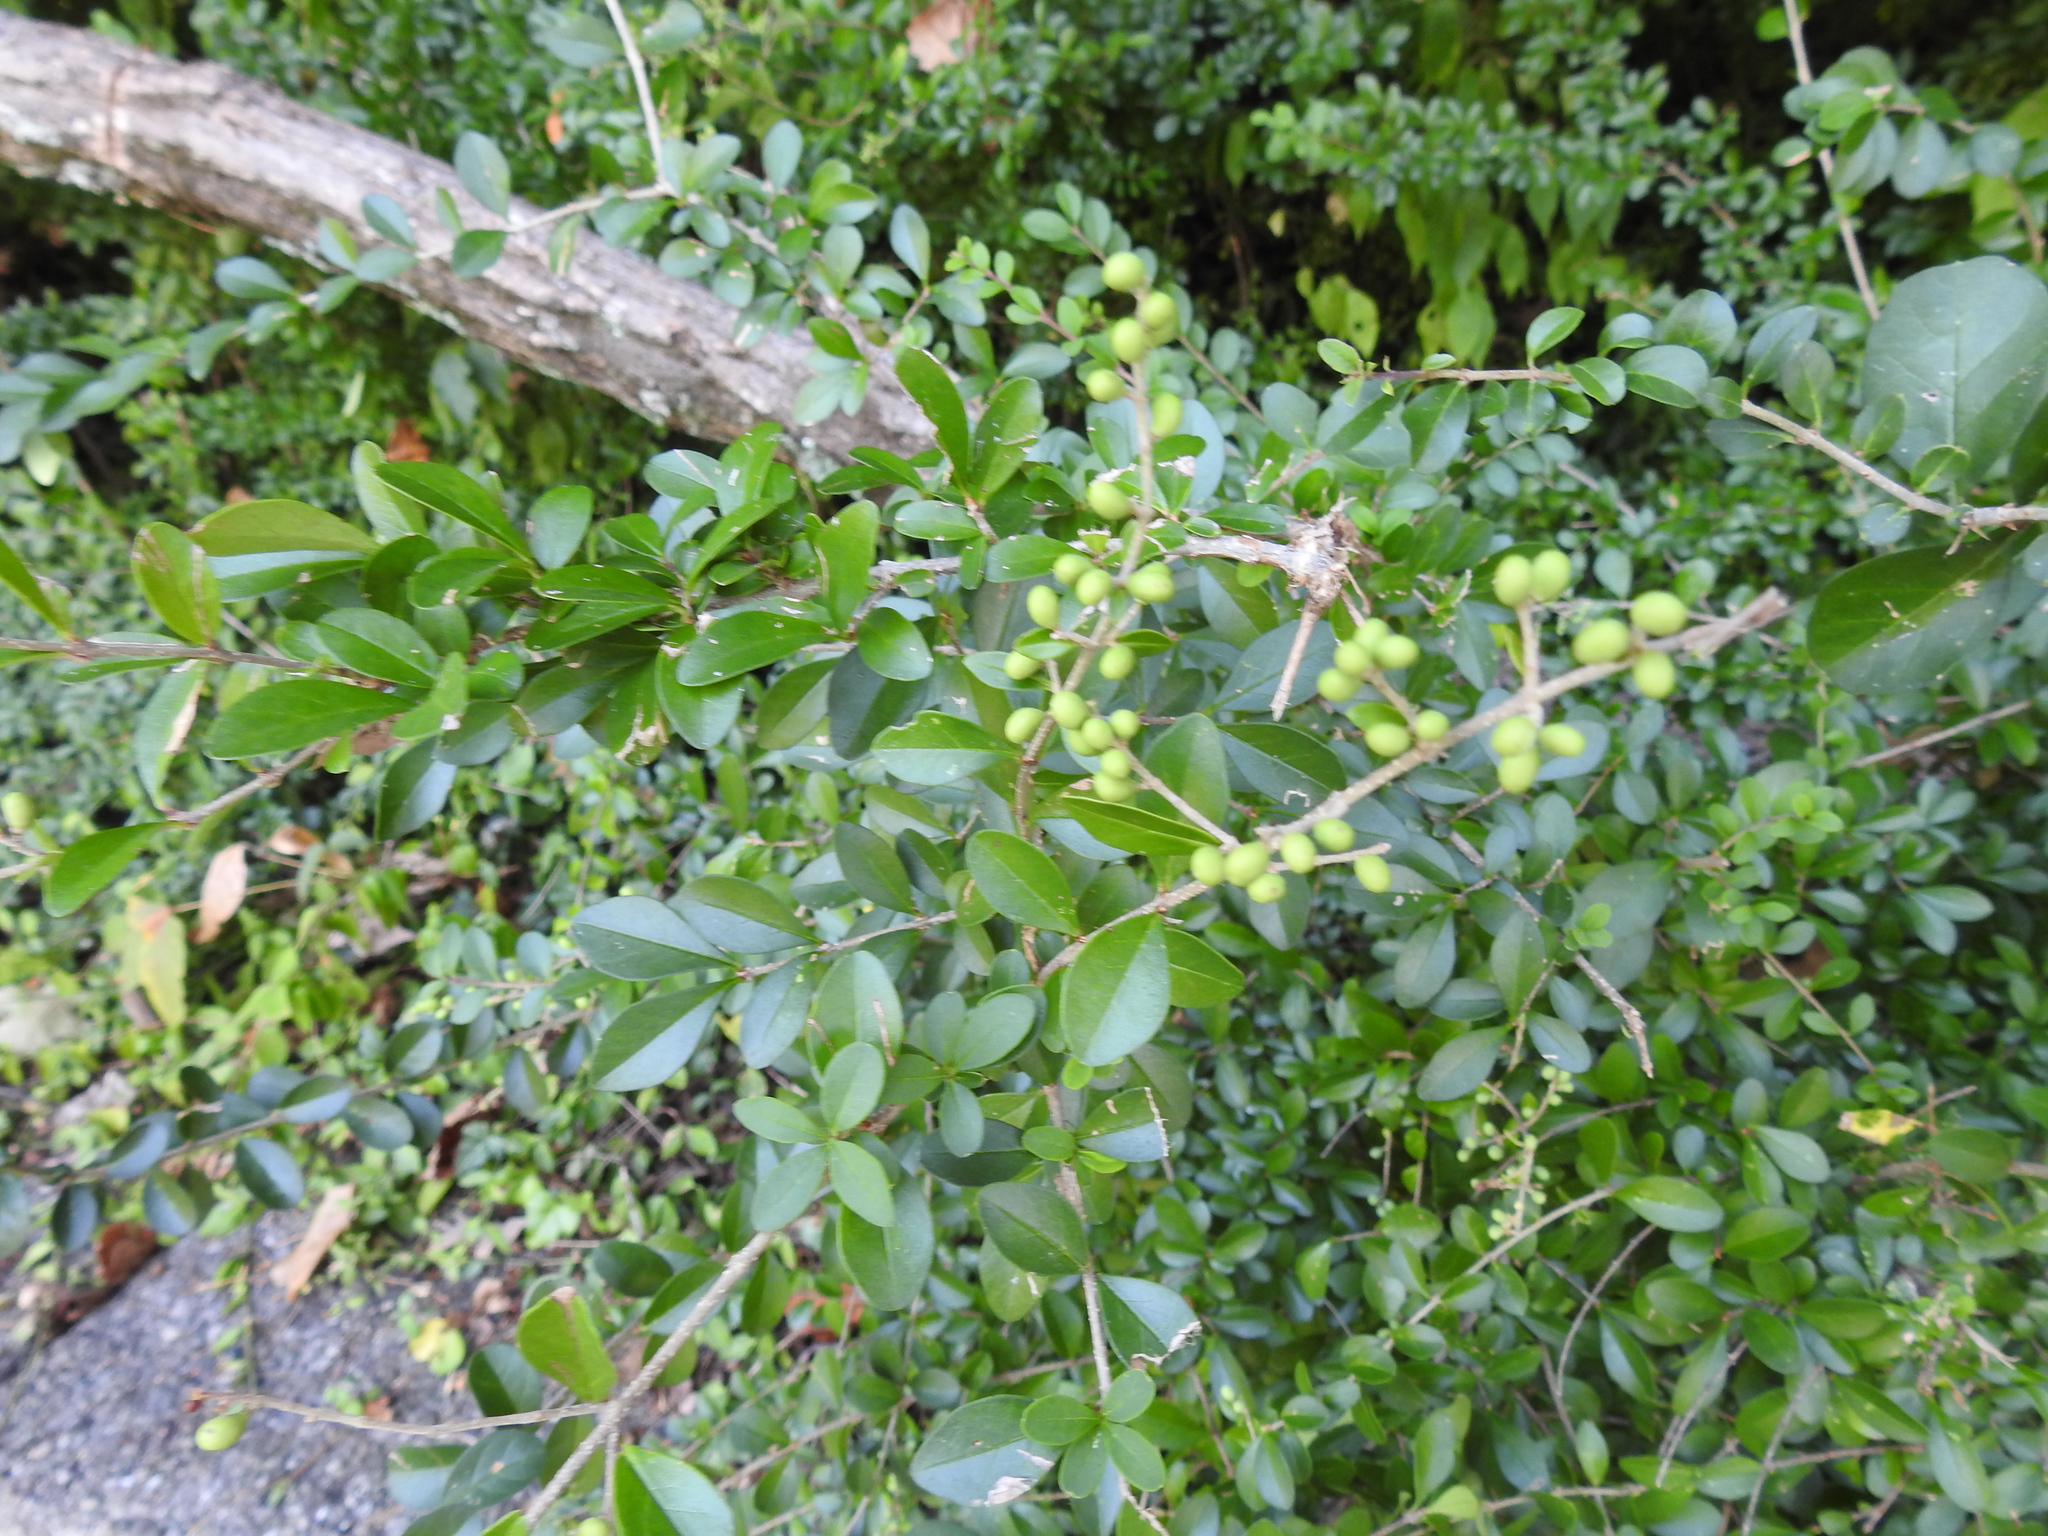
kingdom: Plantae
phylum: Tracheophyta
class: Magnoliopsida
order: Lamiales
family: Oleaceae
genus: Ligustrum
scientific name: Ligustrum obtusifolium
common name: Border privet
